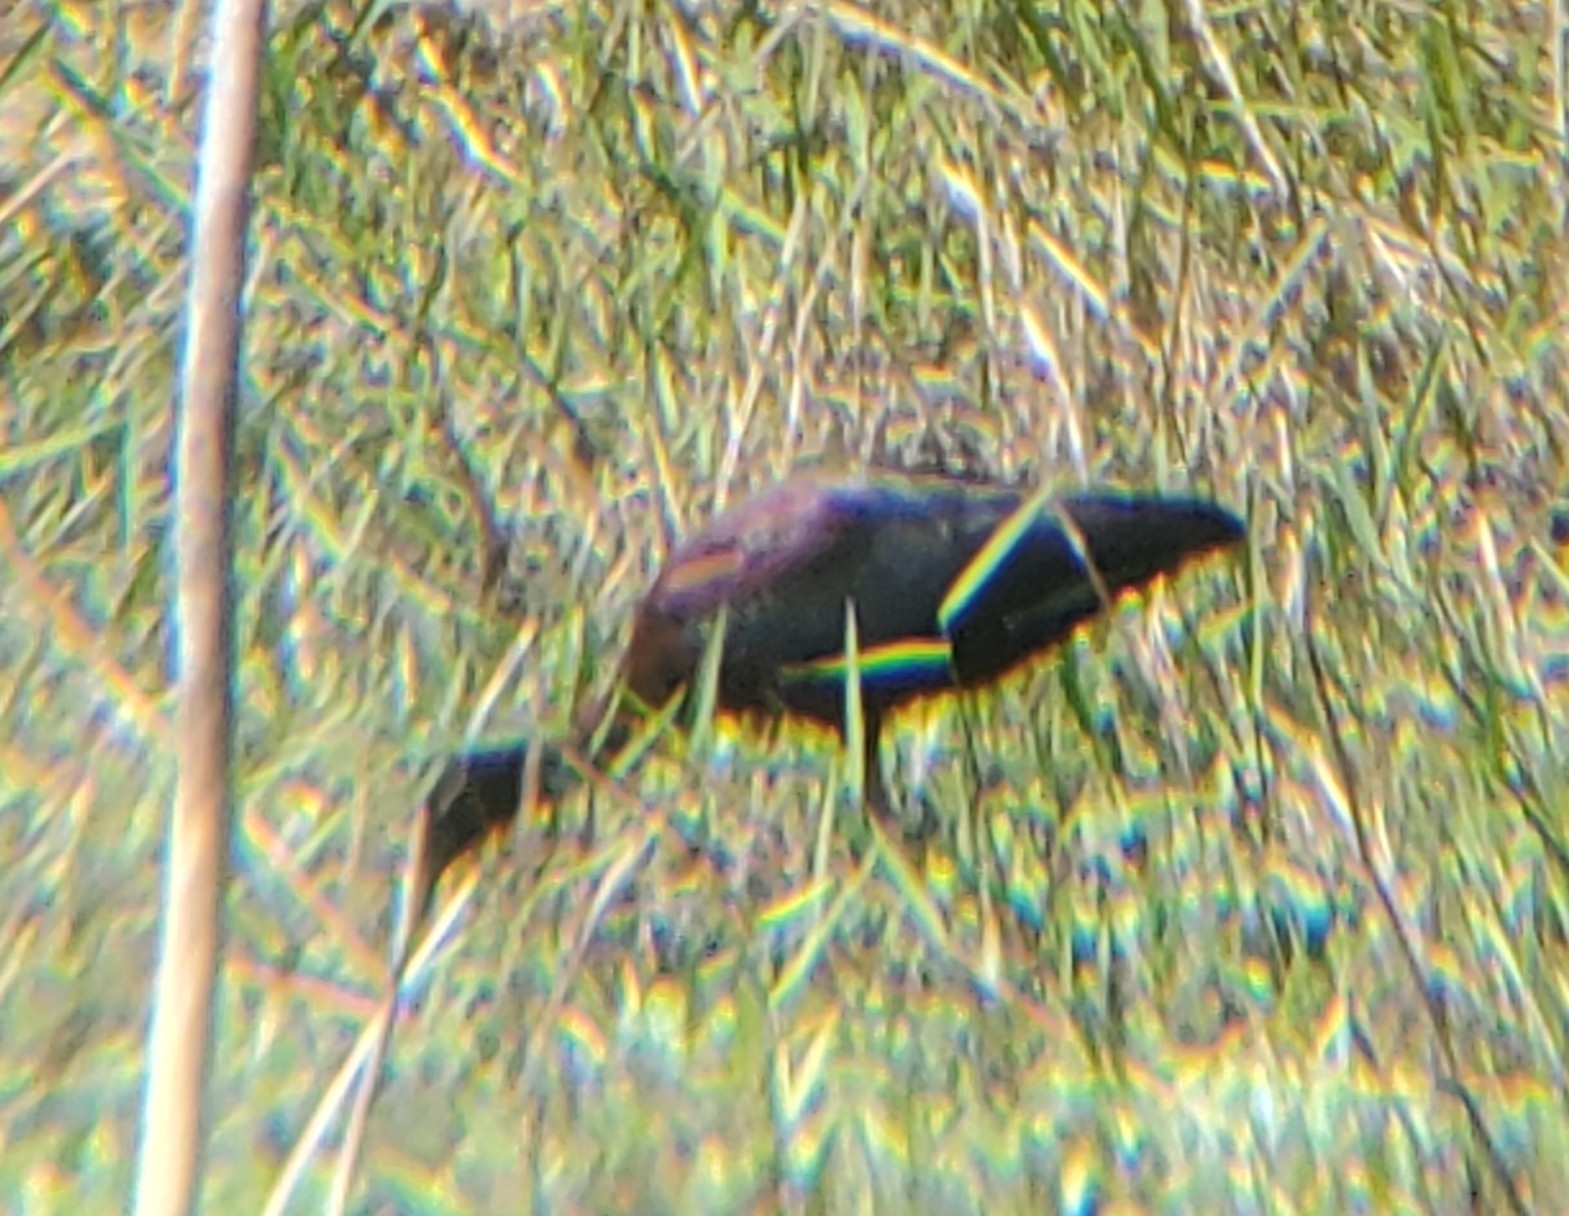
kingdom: Animalia
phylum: Chordata
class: Aves
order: Pelecaniformes
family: Threskiornithidae
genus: Plegadis
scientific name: Plegadis falcinellus
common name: Glossy ibis
